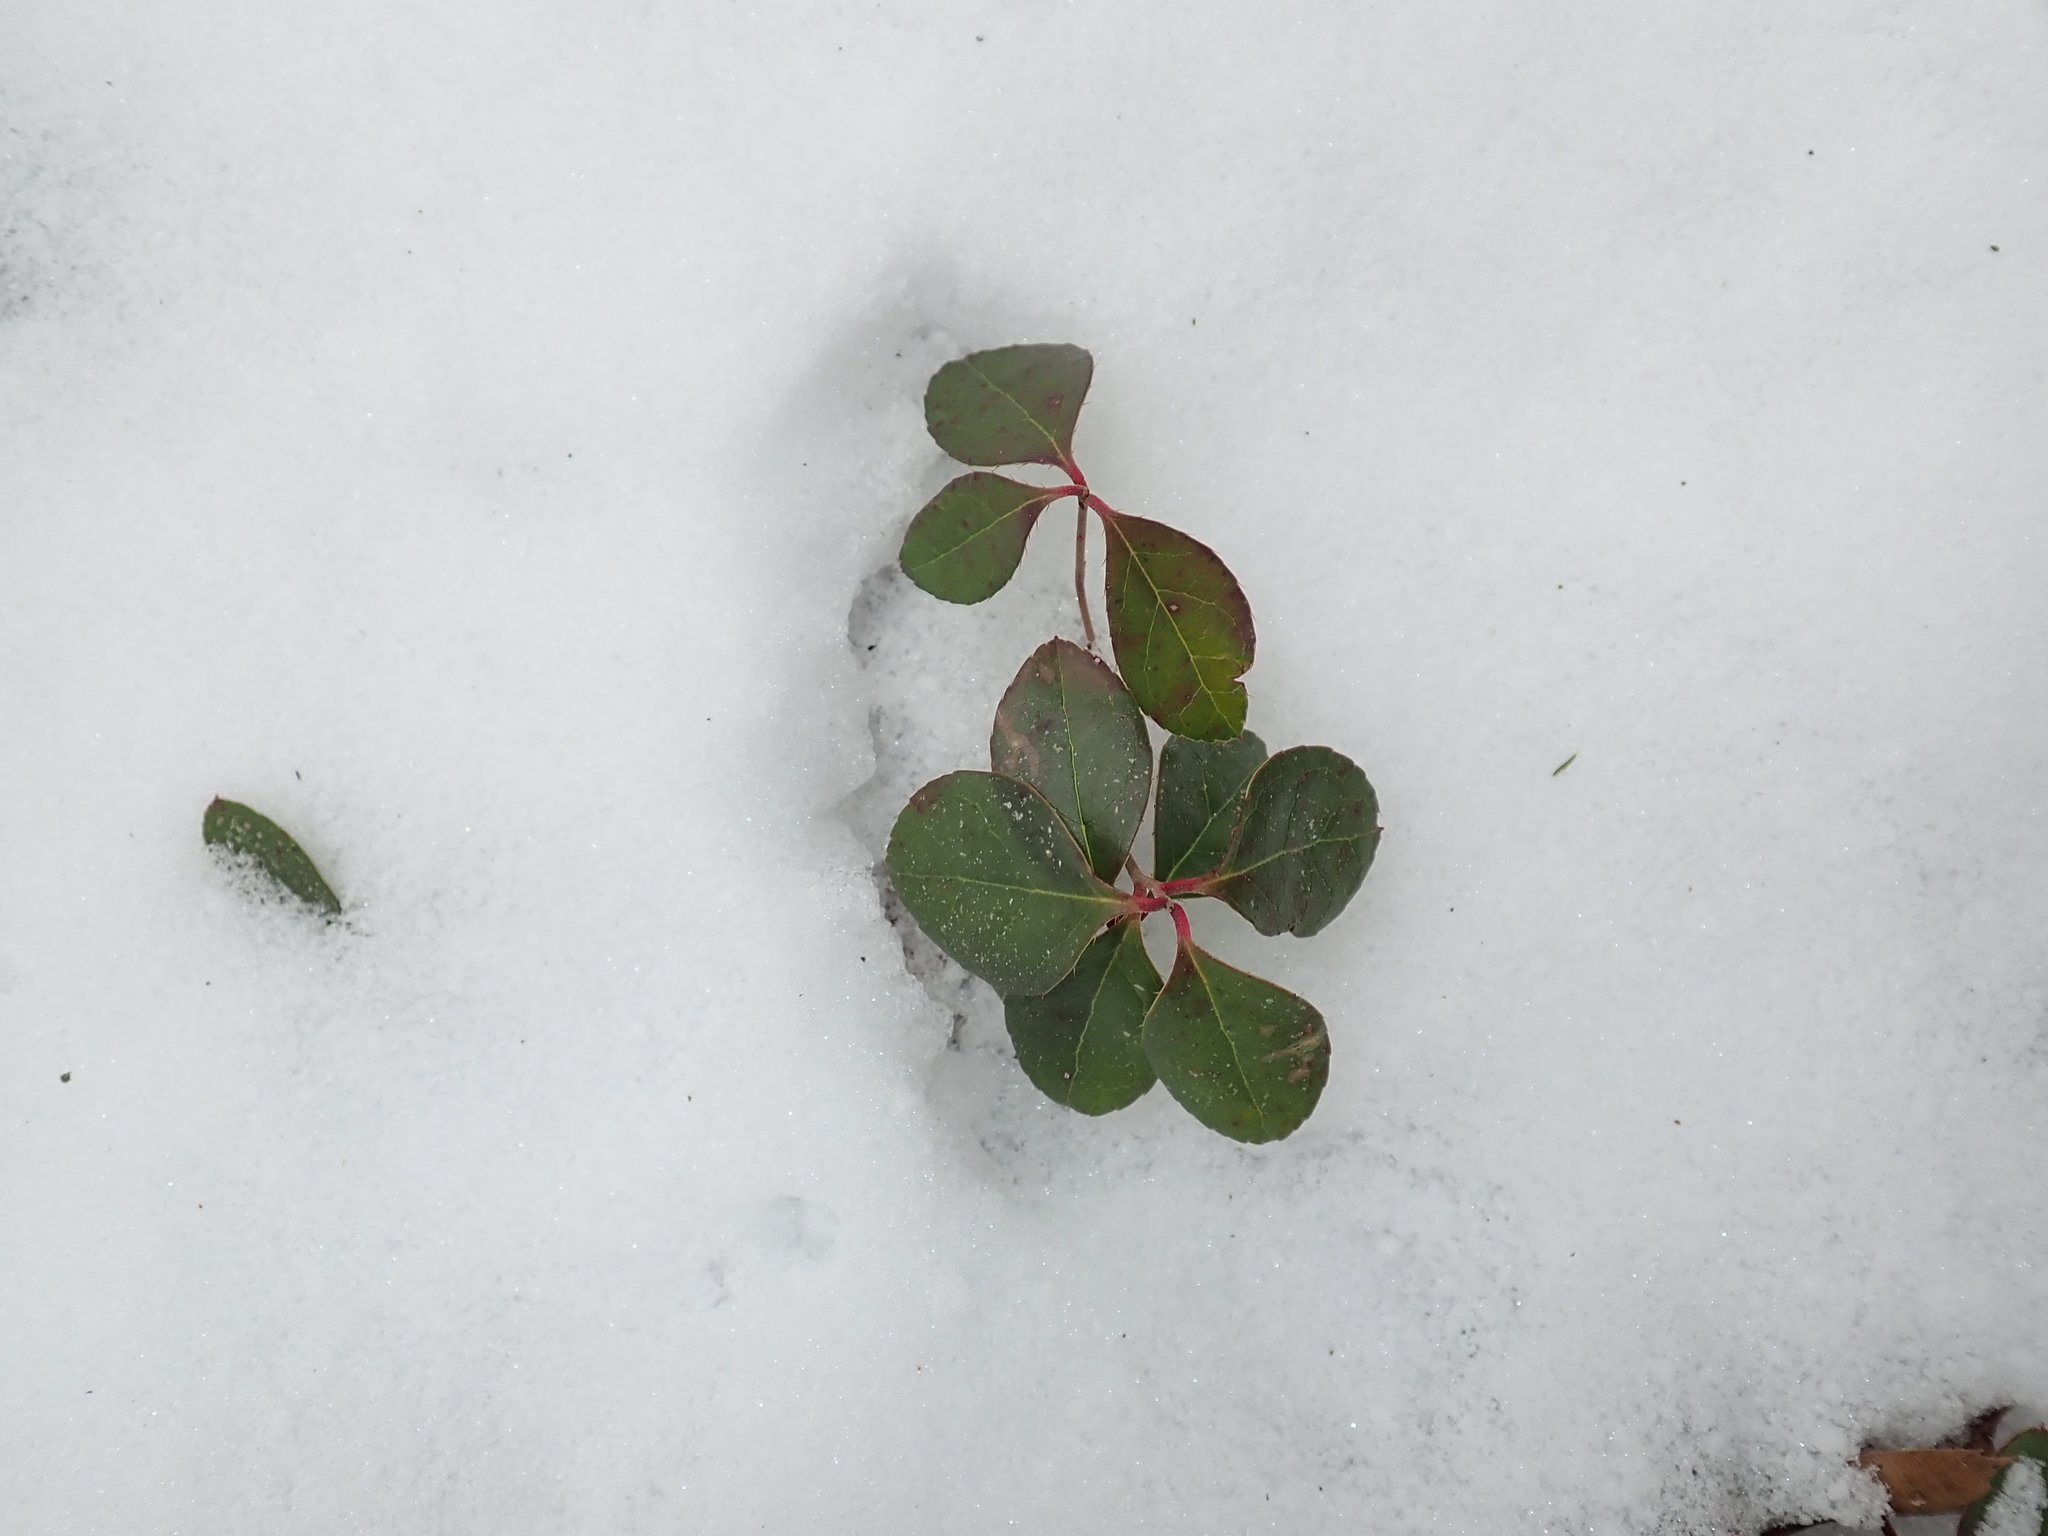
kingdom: Plantae
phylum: Tracheophyta
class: Magnoliopsida
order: Ericales
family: Ericaceae
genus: Gaultheria
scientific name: Gaultheria procumbens
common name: Checkerberry
